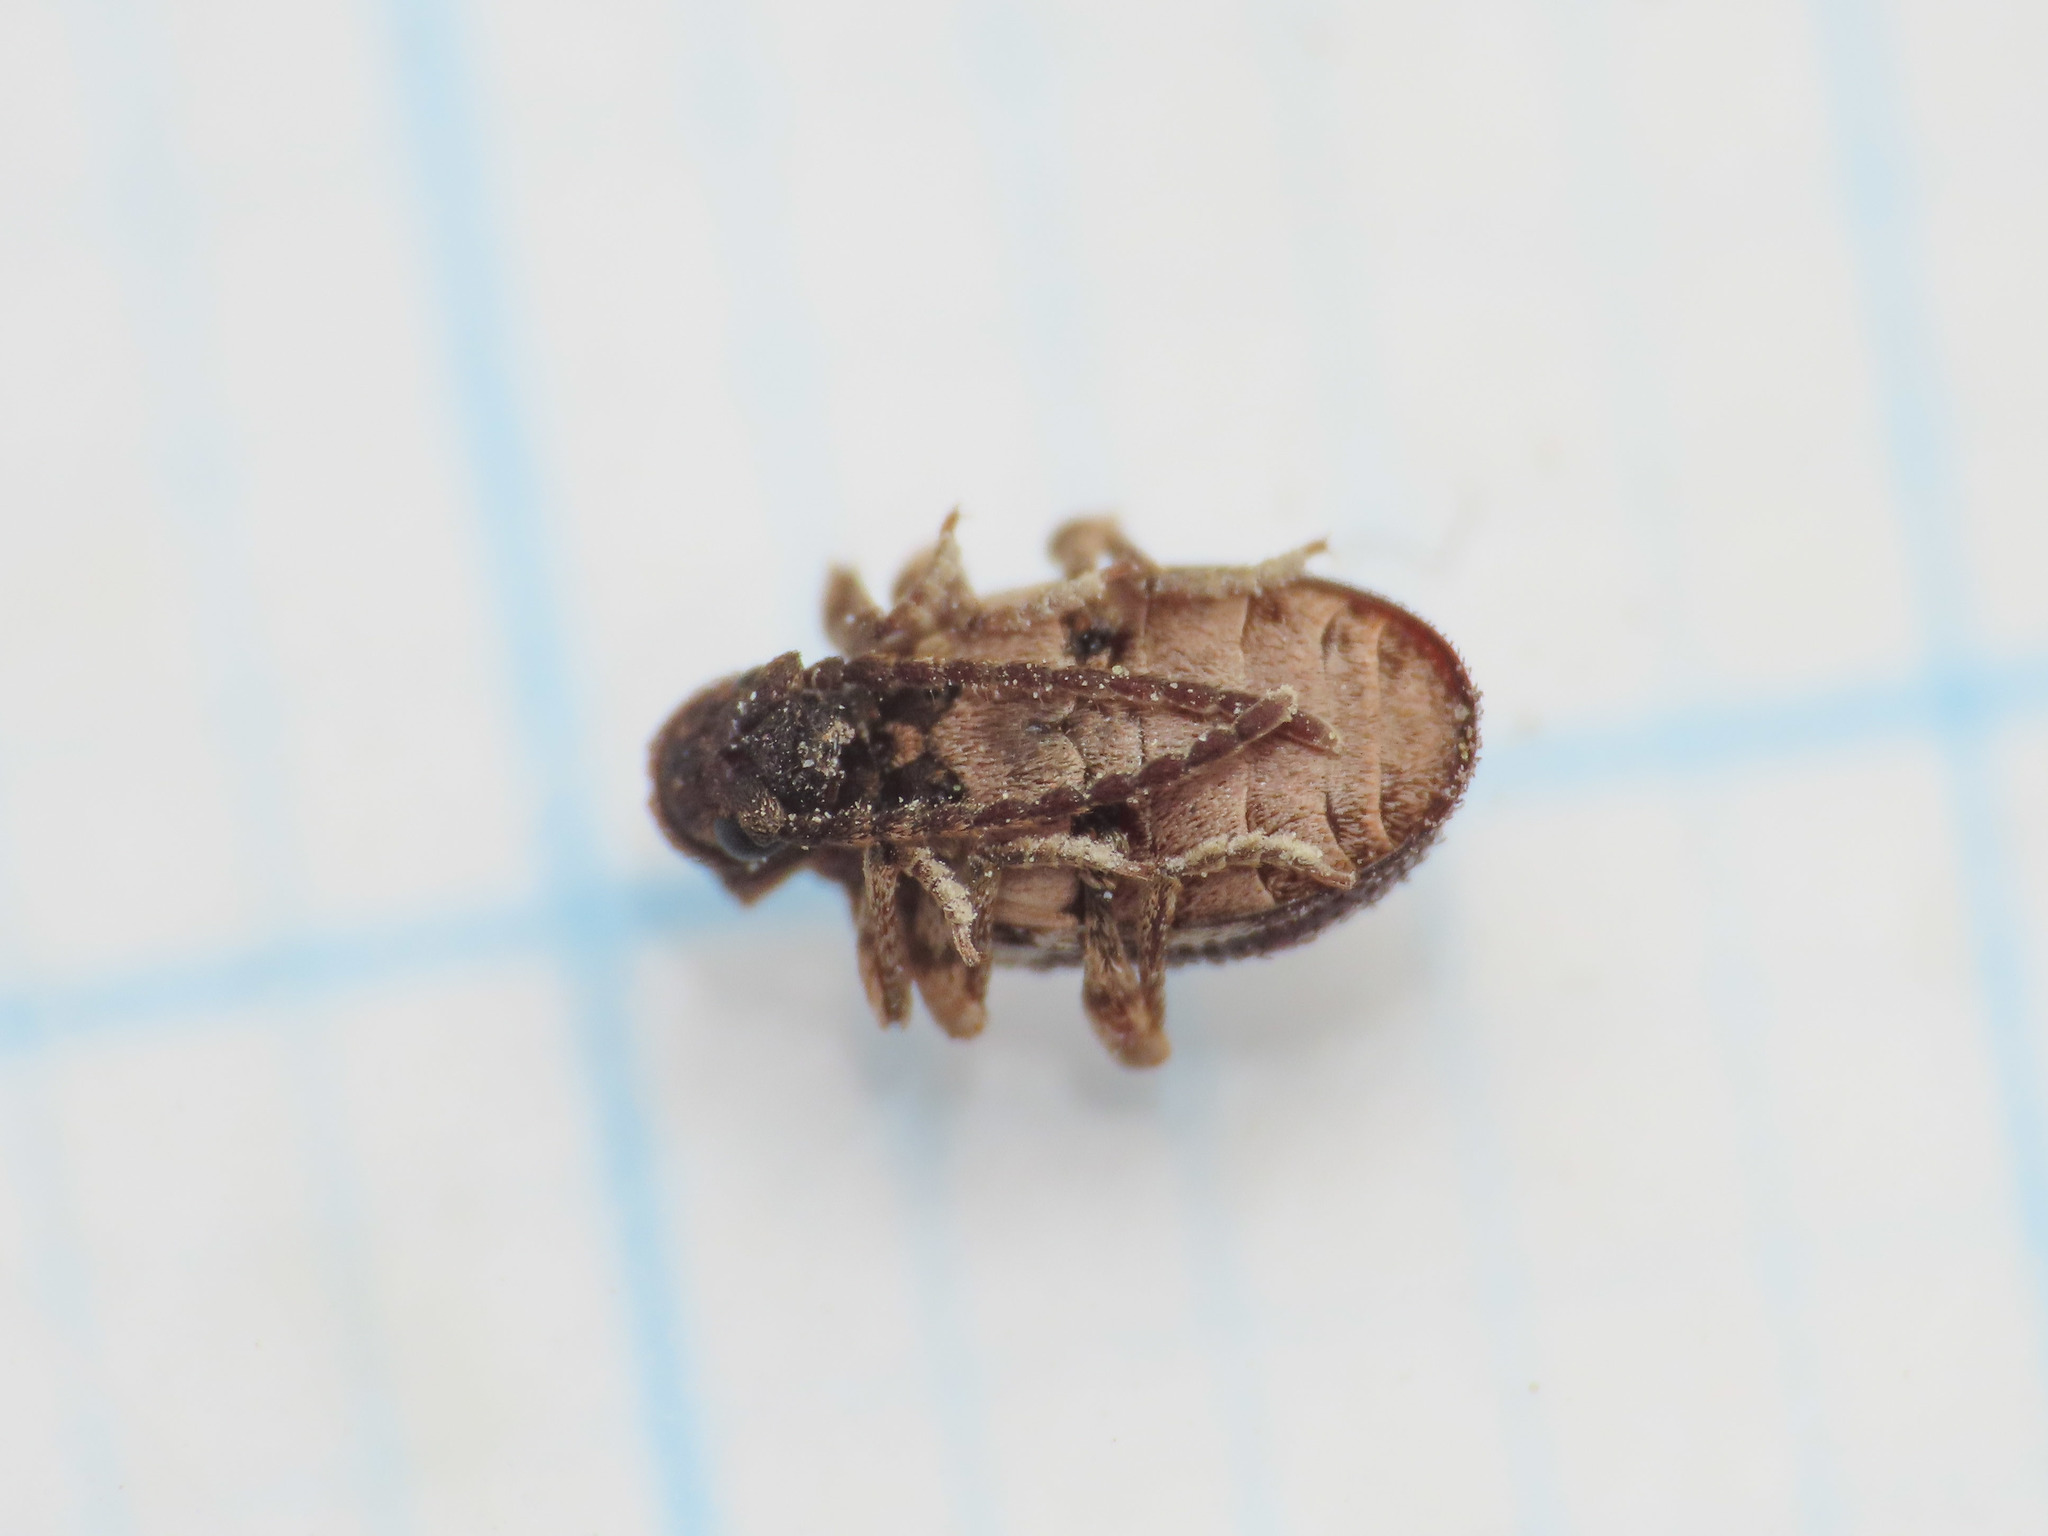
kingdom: Animalia
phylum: Arthropoda
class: Insecta
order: Coleoptera
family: Ptinidae
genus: Ptinus
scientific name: Ptinus variegatus
